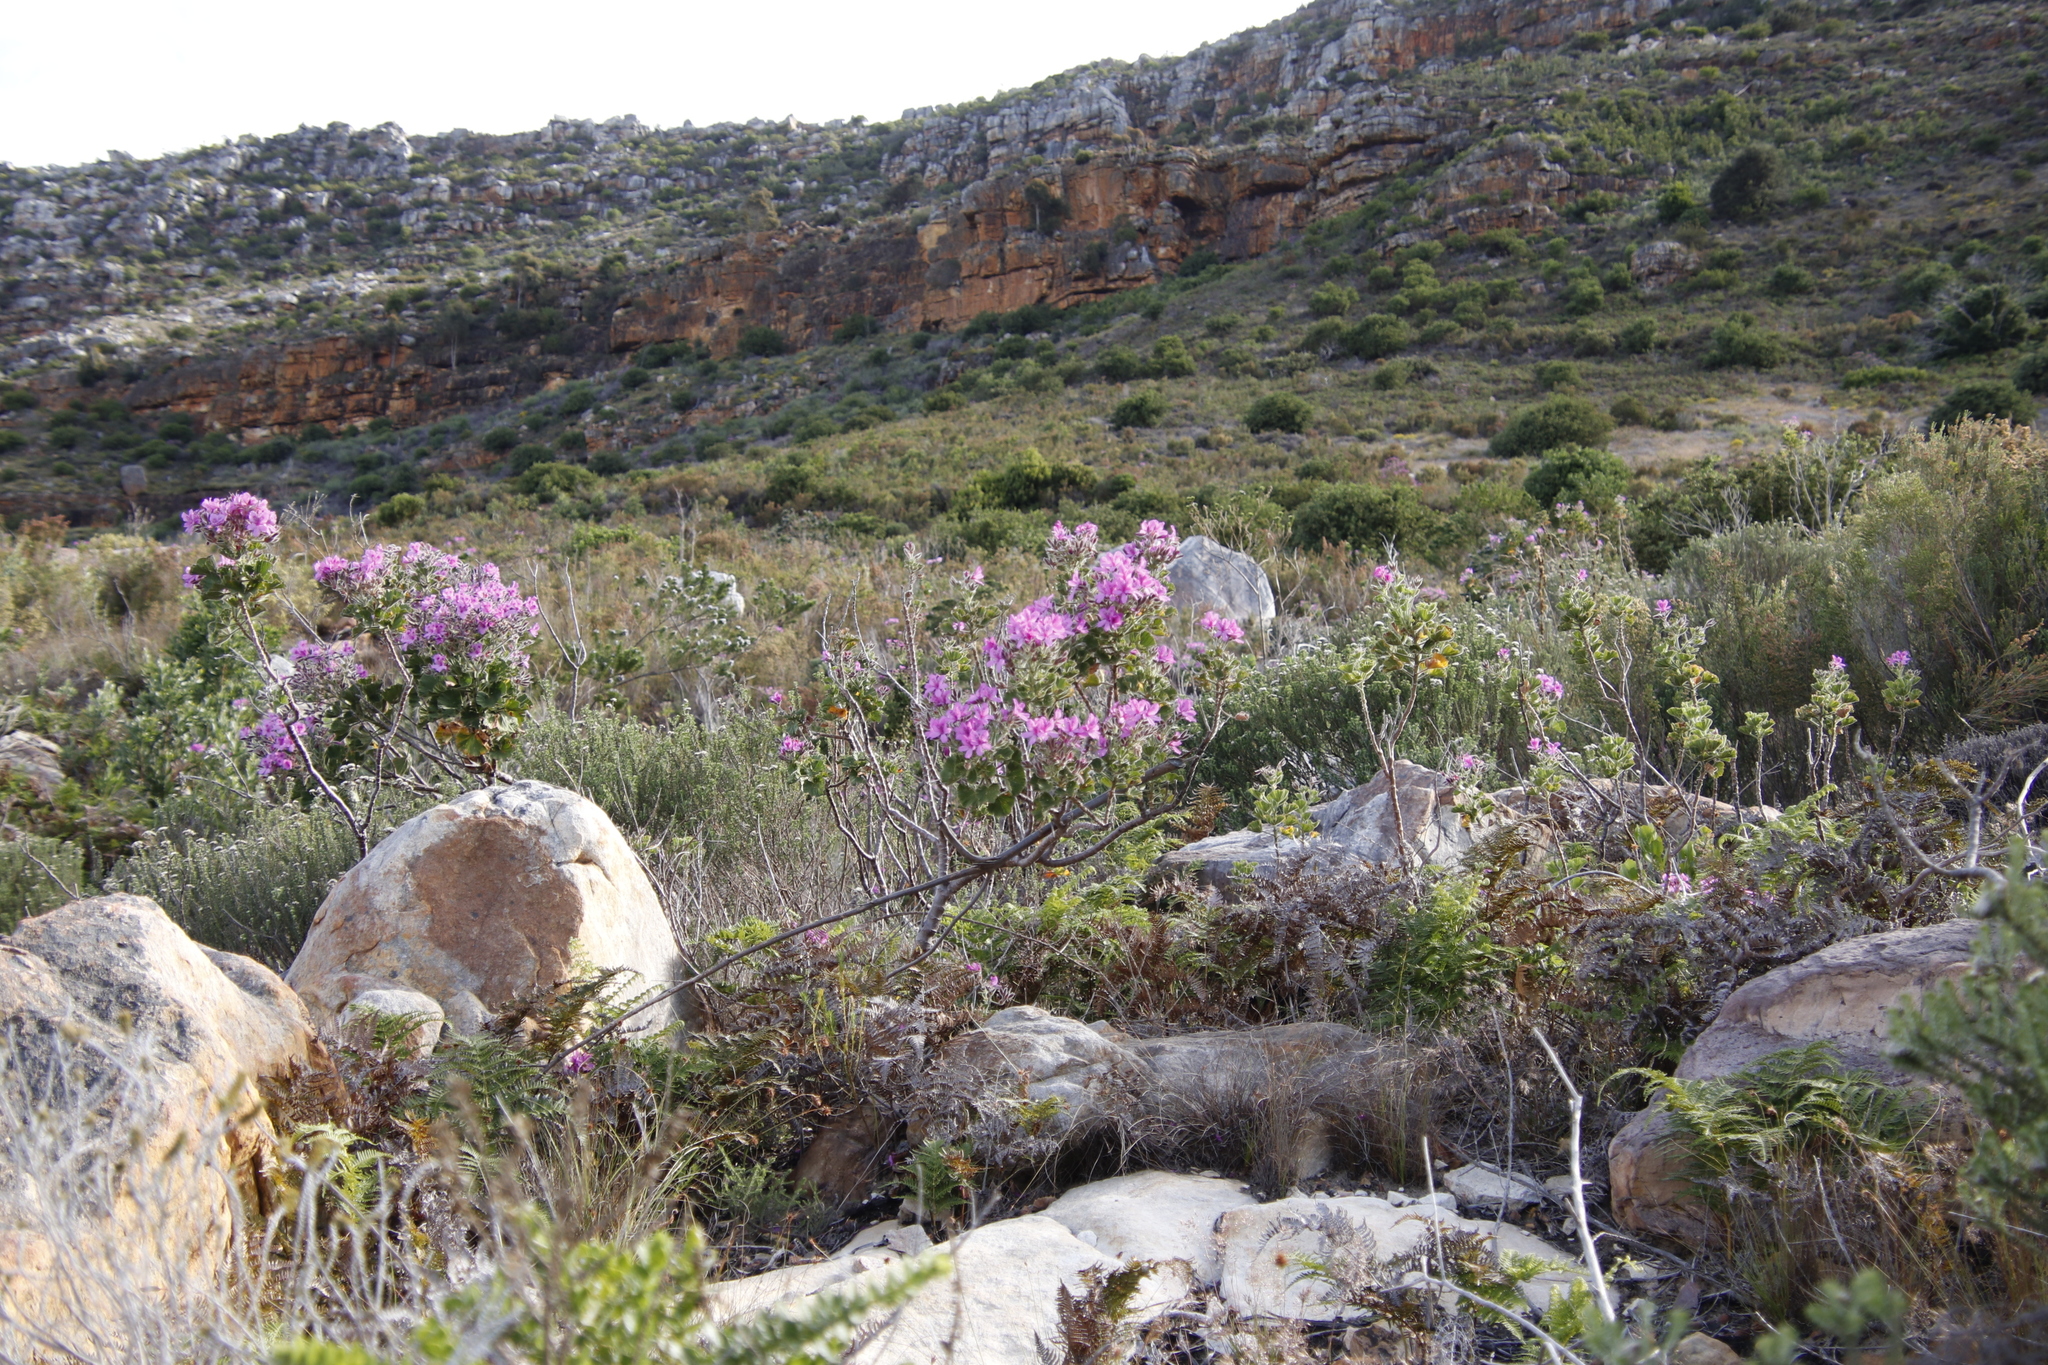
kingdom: Plantae
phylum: Tracheophyta
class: Magnoliopsida
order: Geraniales
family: Geraniaceae
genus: Pelargonium
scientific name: Pelargonium cucullatum
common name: Tree pelargonium
